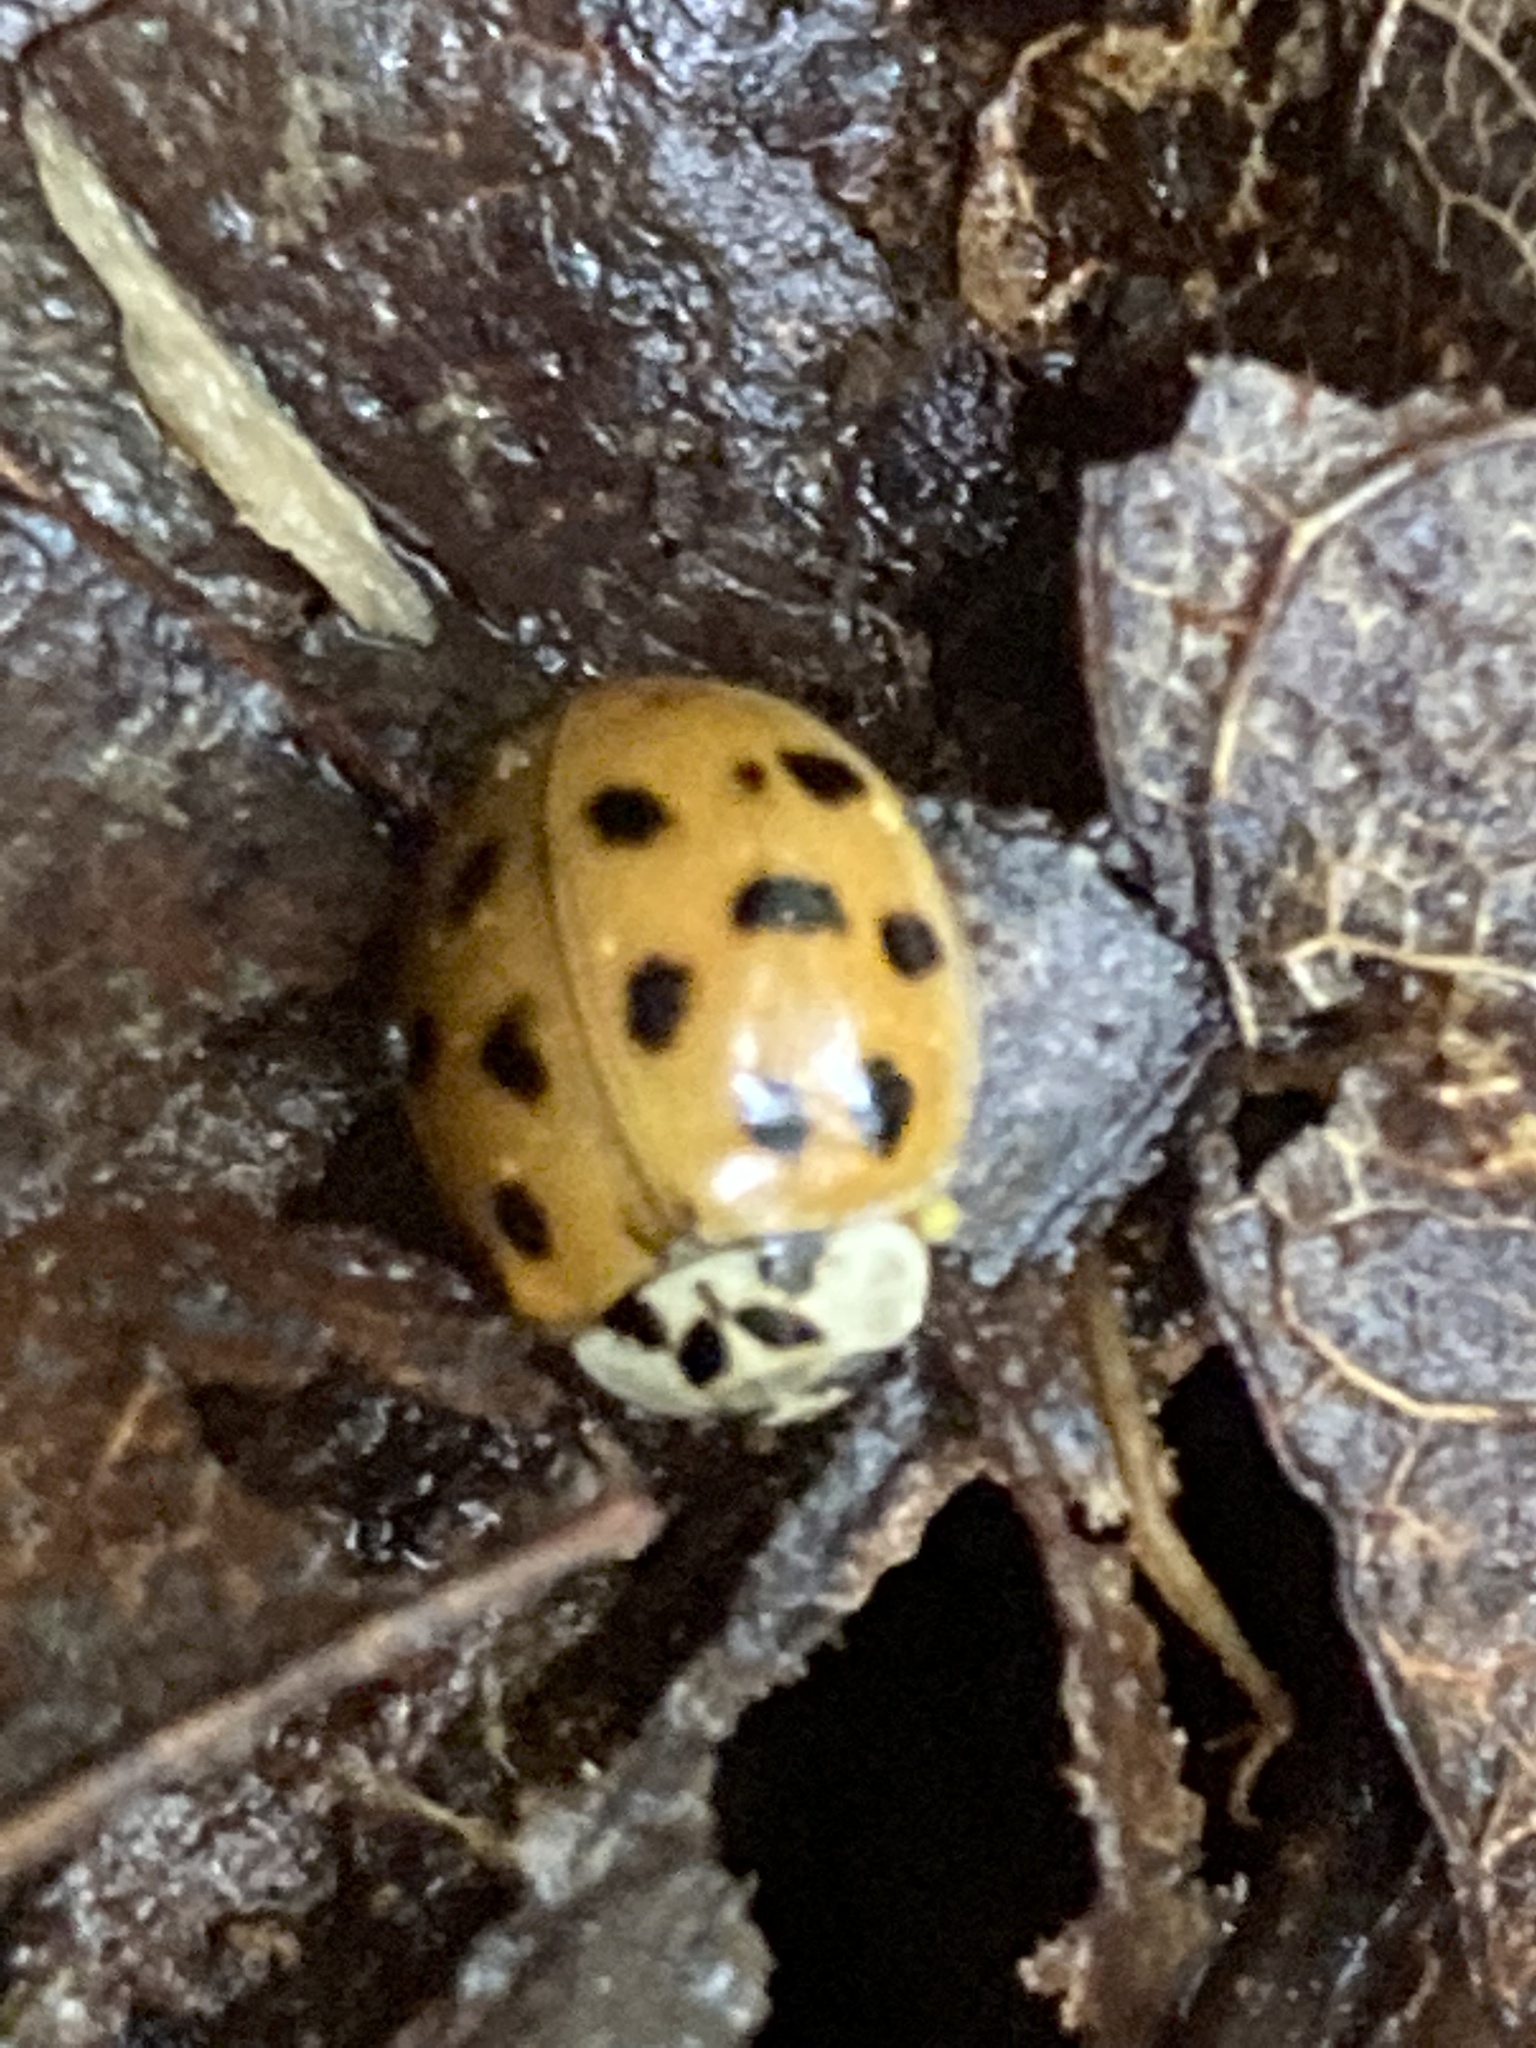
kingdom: Animalia
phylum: Arthropoda
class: Insecta
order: Coleoptera
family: Coccinellidae
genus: Harmonia
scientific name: Harmonia axyridis
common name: Harlequin ladybird
